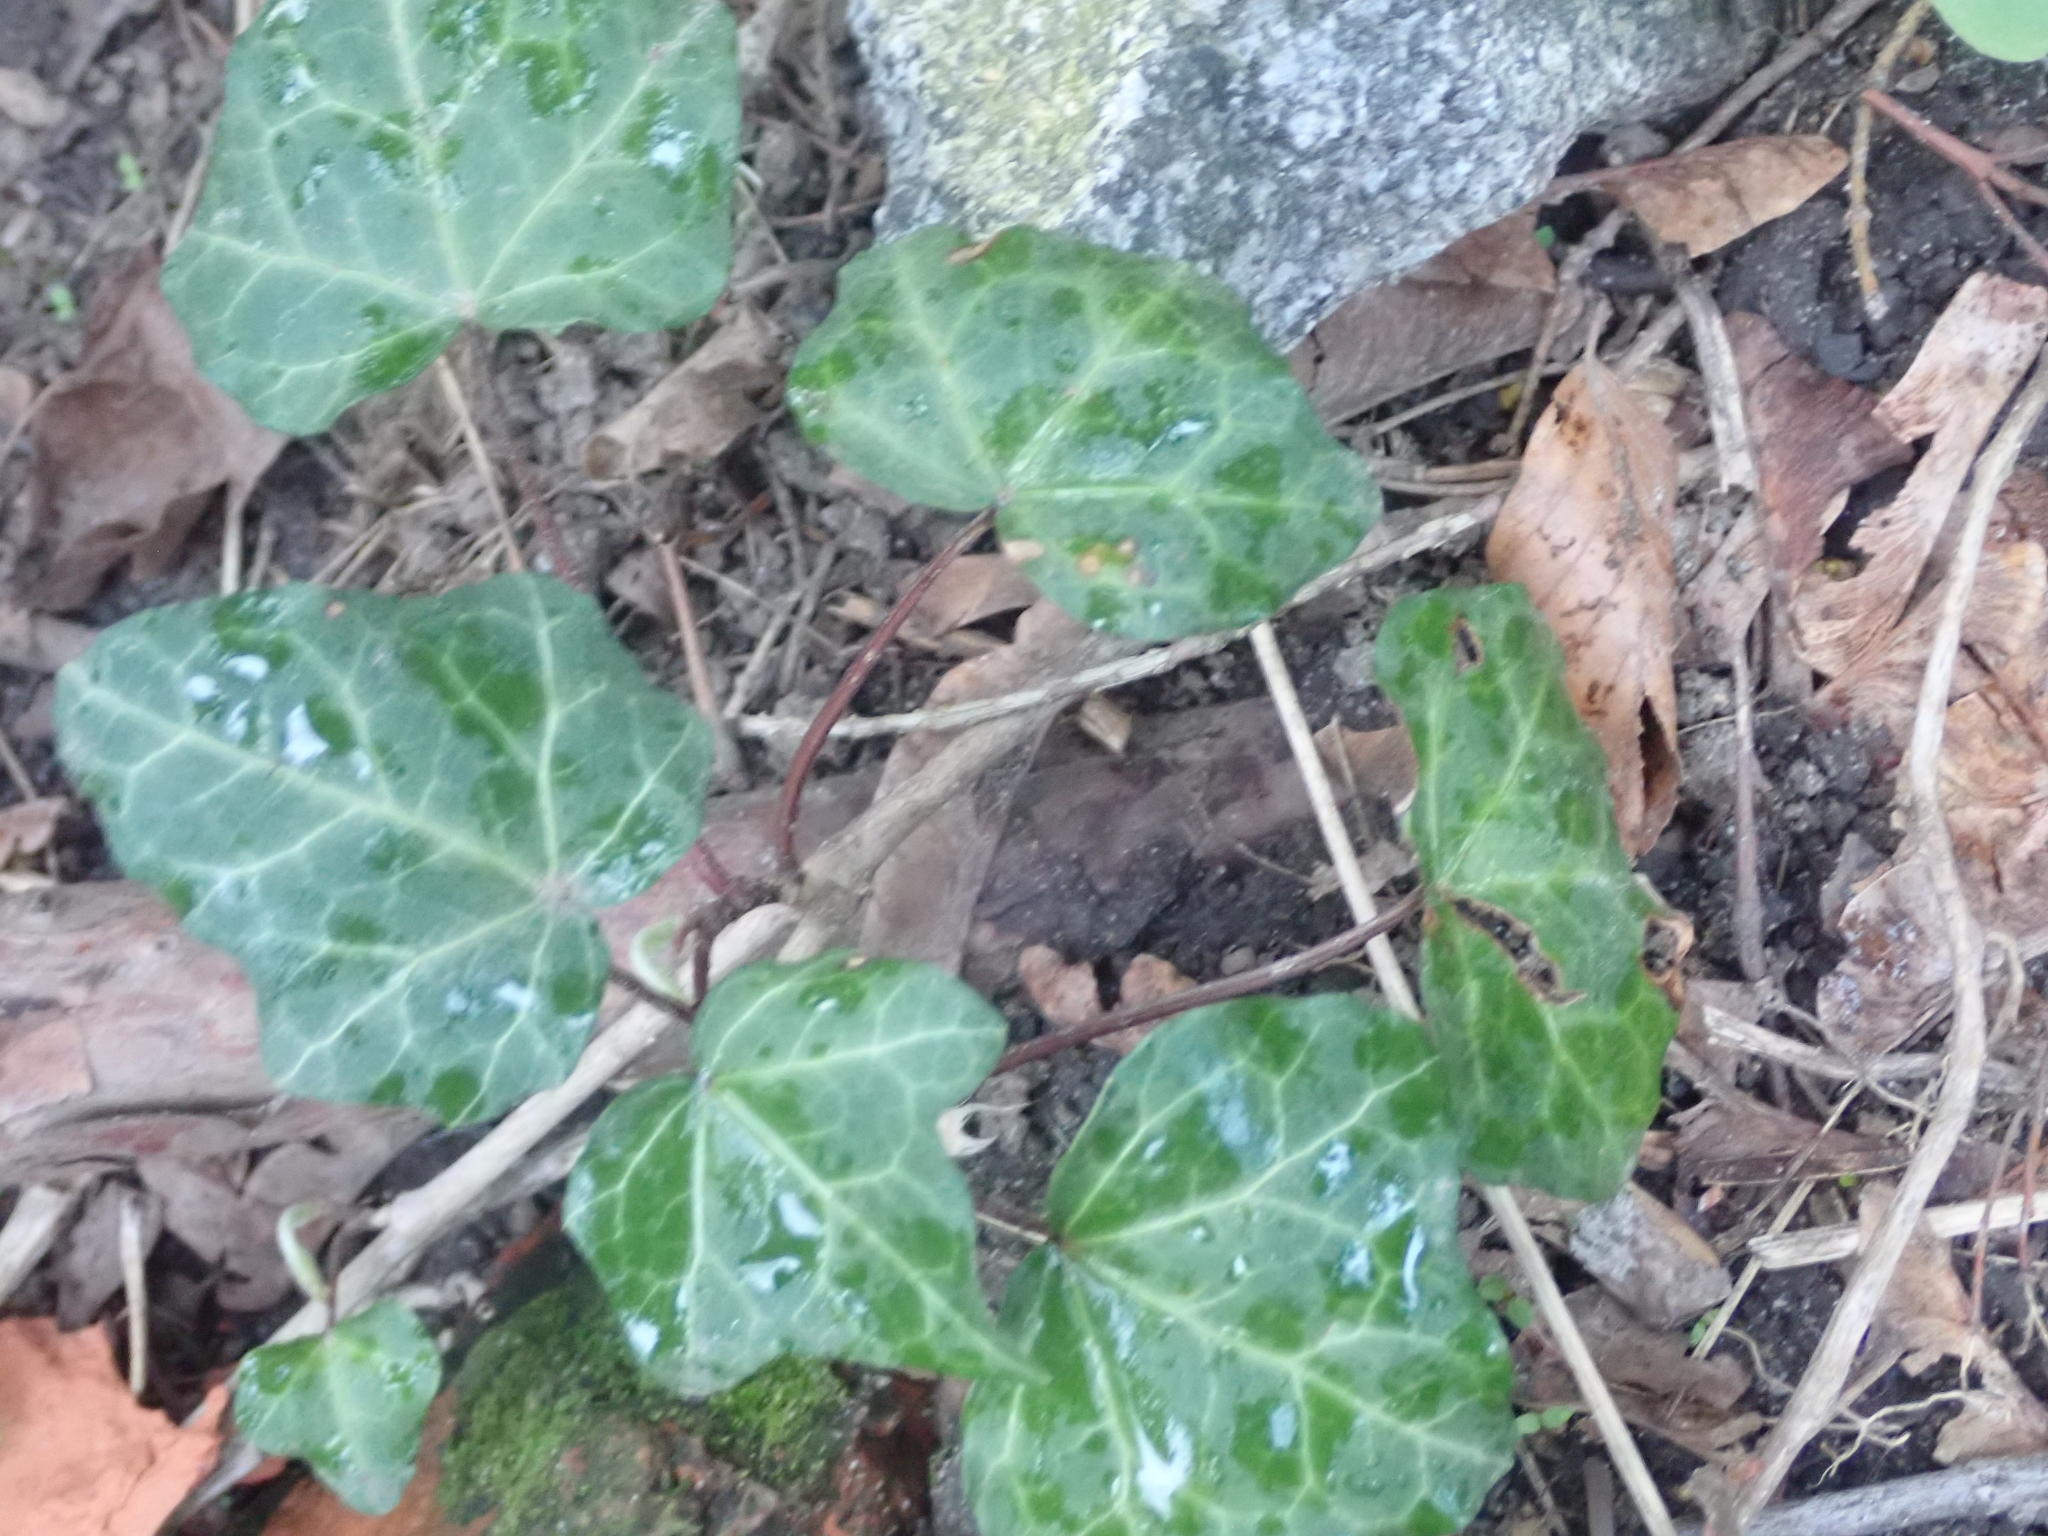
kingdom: Plantae
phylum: Tracheophyta
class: Magnoliopsida
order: Apiales
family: Araliaceae
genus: Hedera
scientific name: Hedera helix
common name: Ivy
